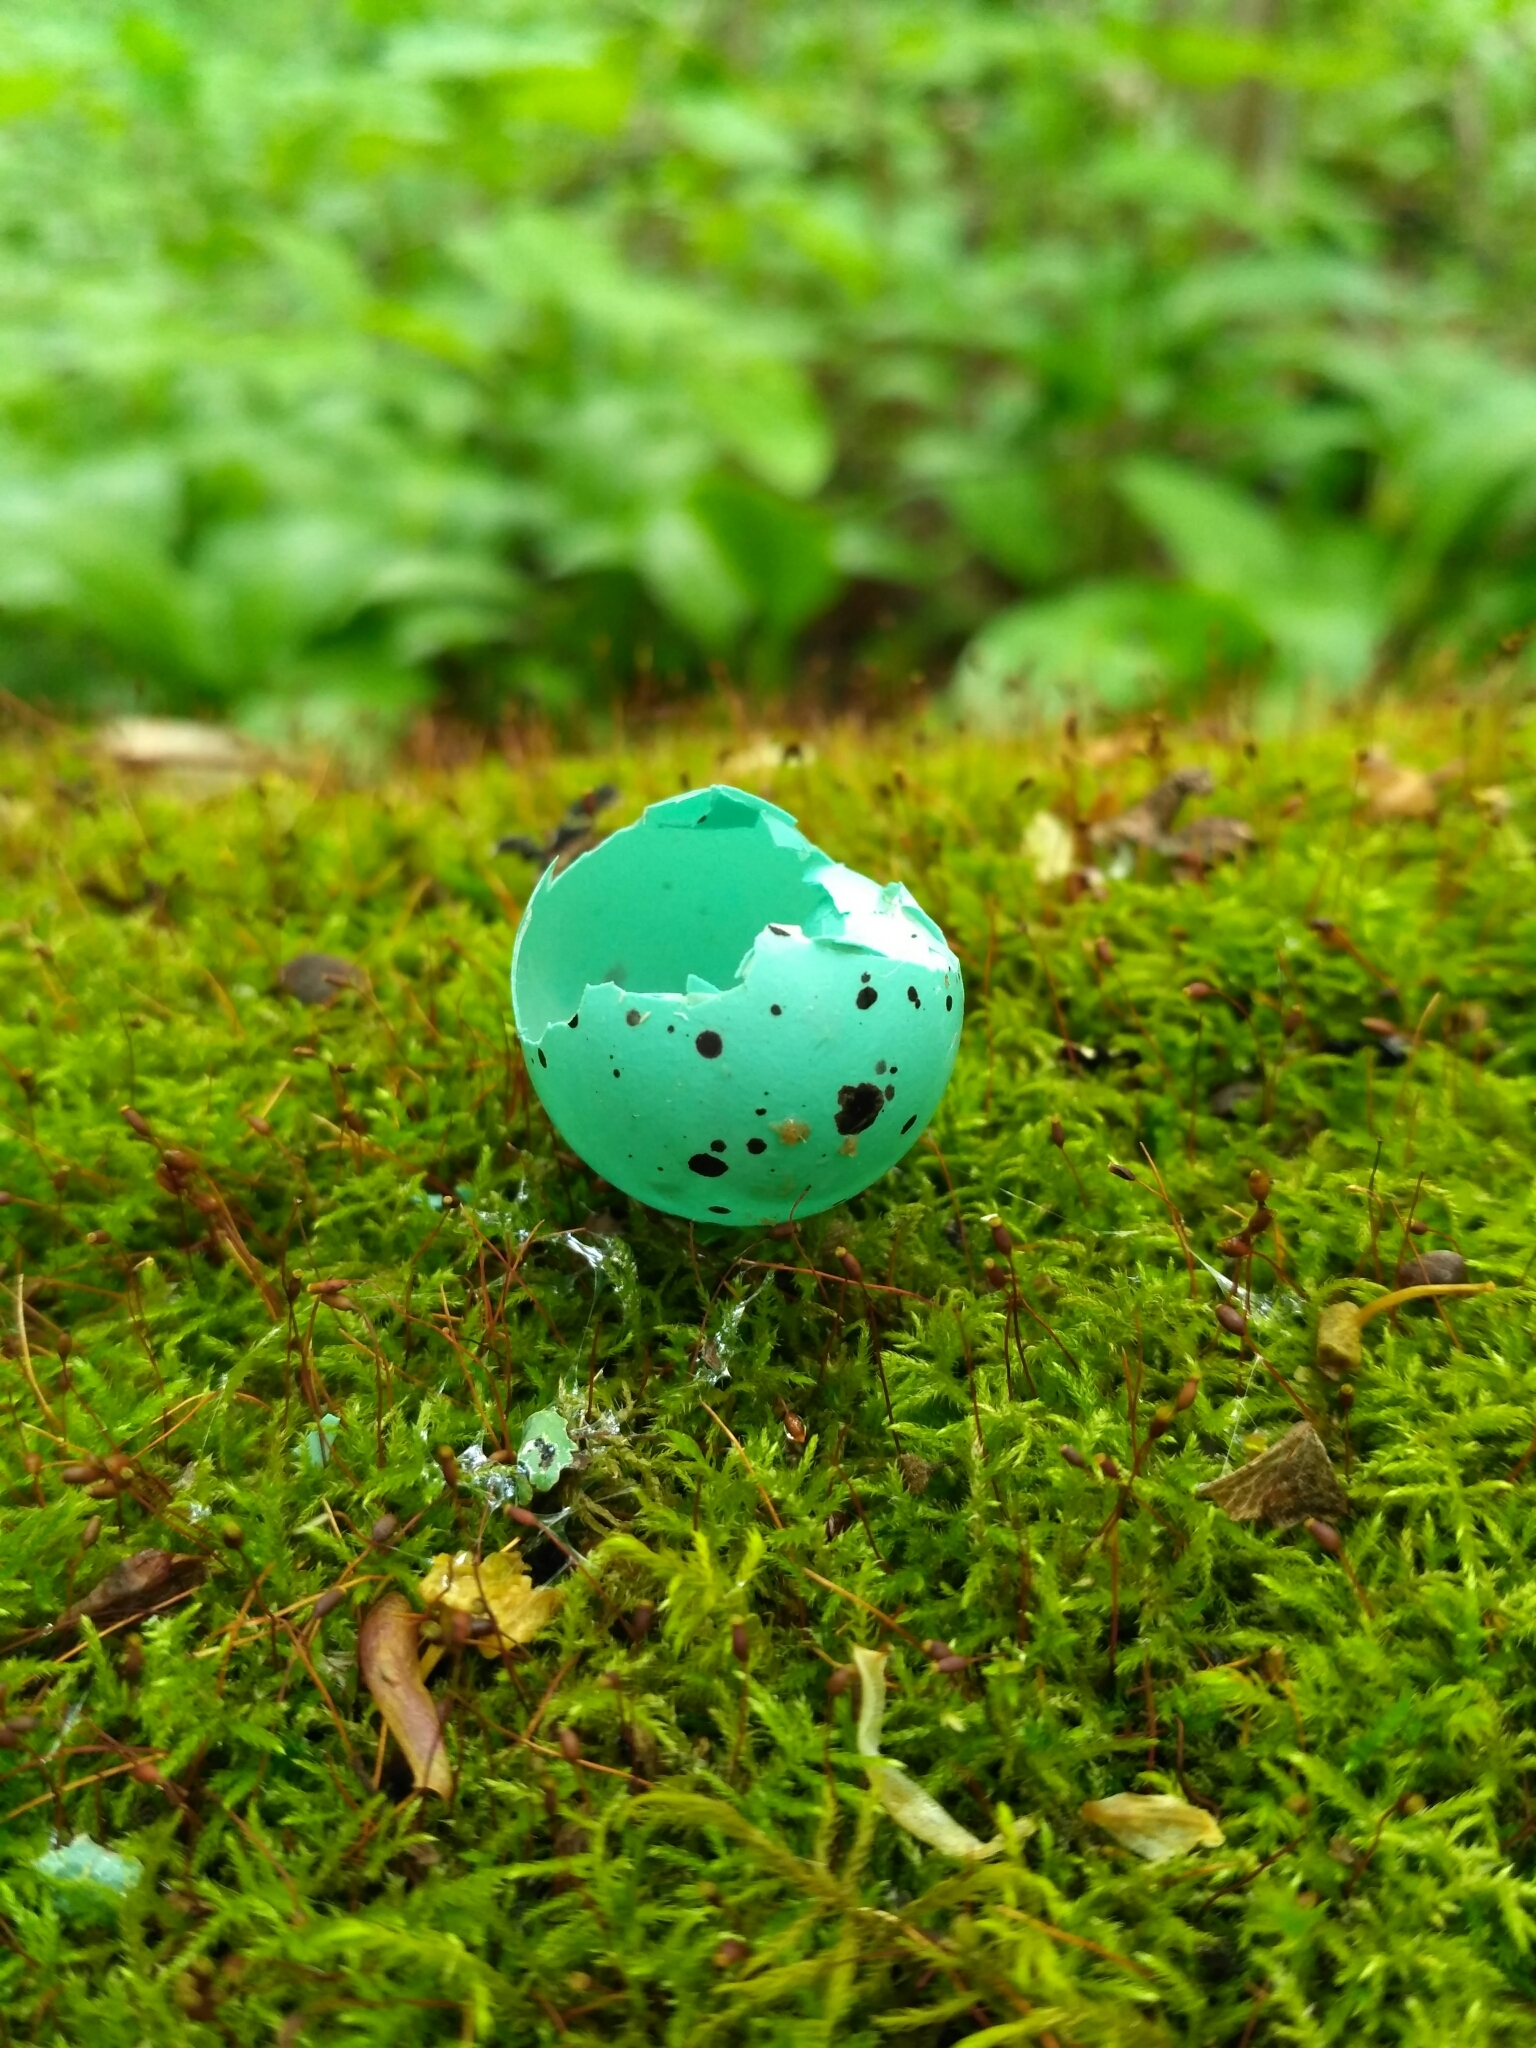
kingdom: Animalia
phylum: Chordata
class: Aves
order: Passeriformes
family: Turdidae
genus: Turdus
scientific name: Turdus philomelos
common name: Song thrush
